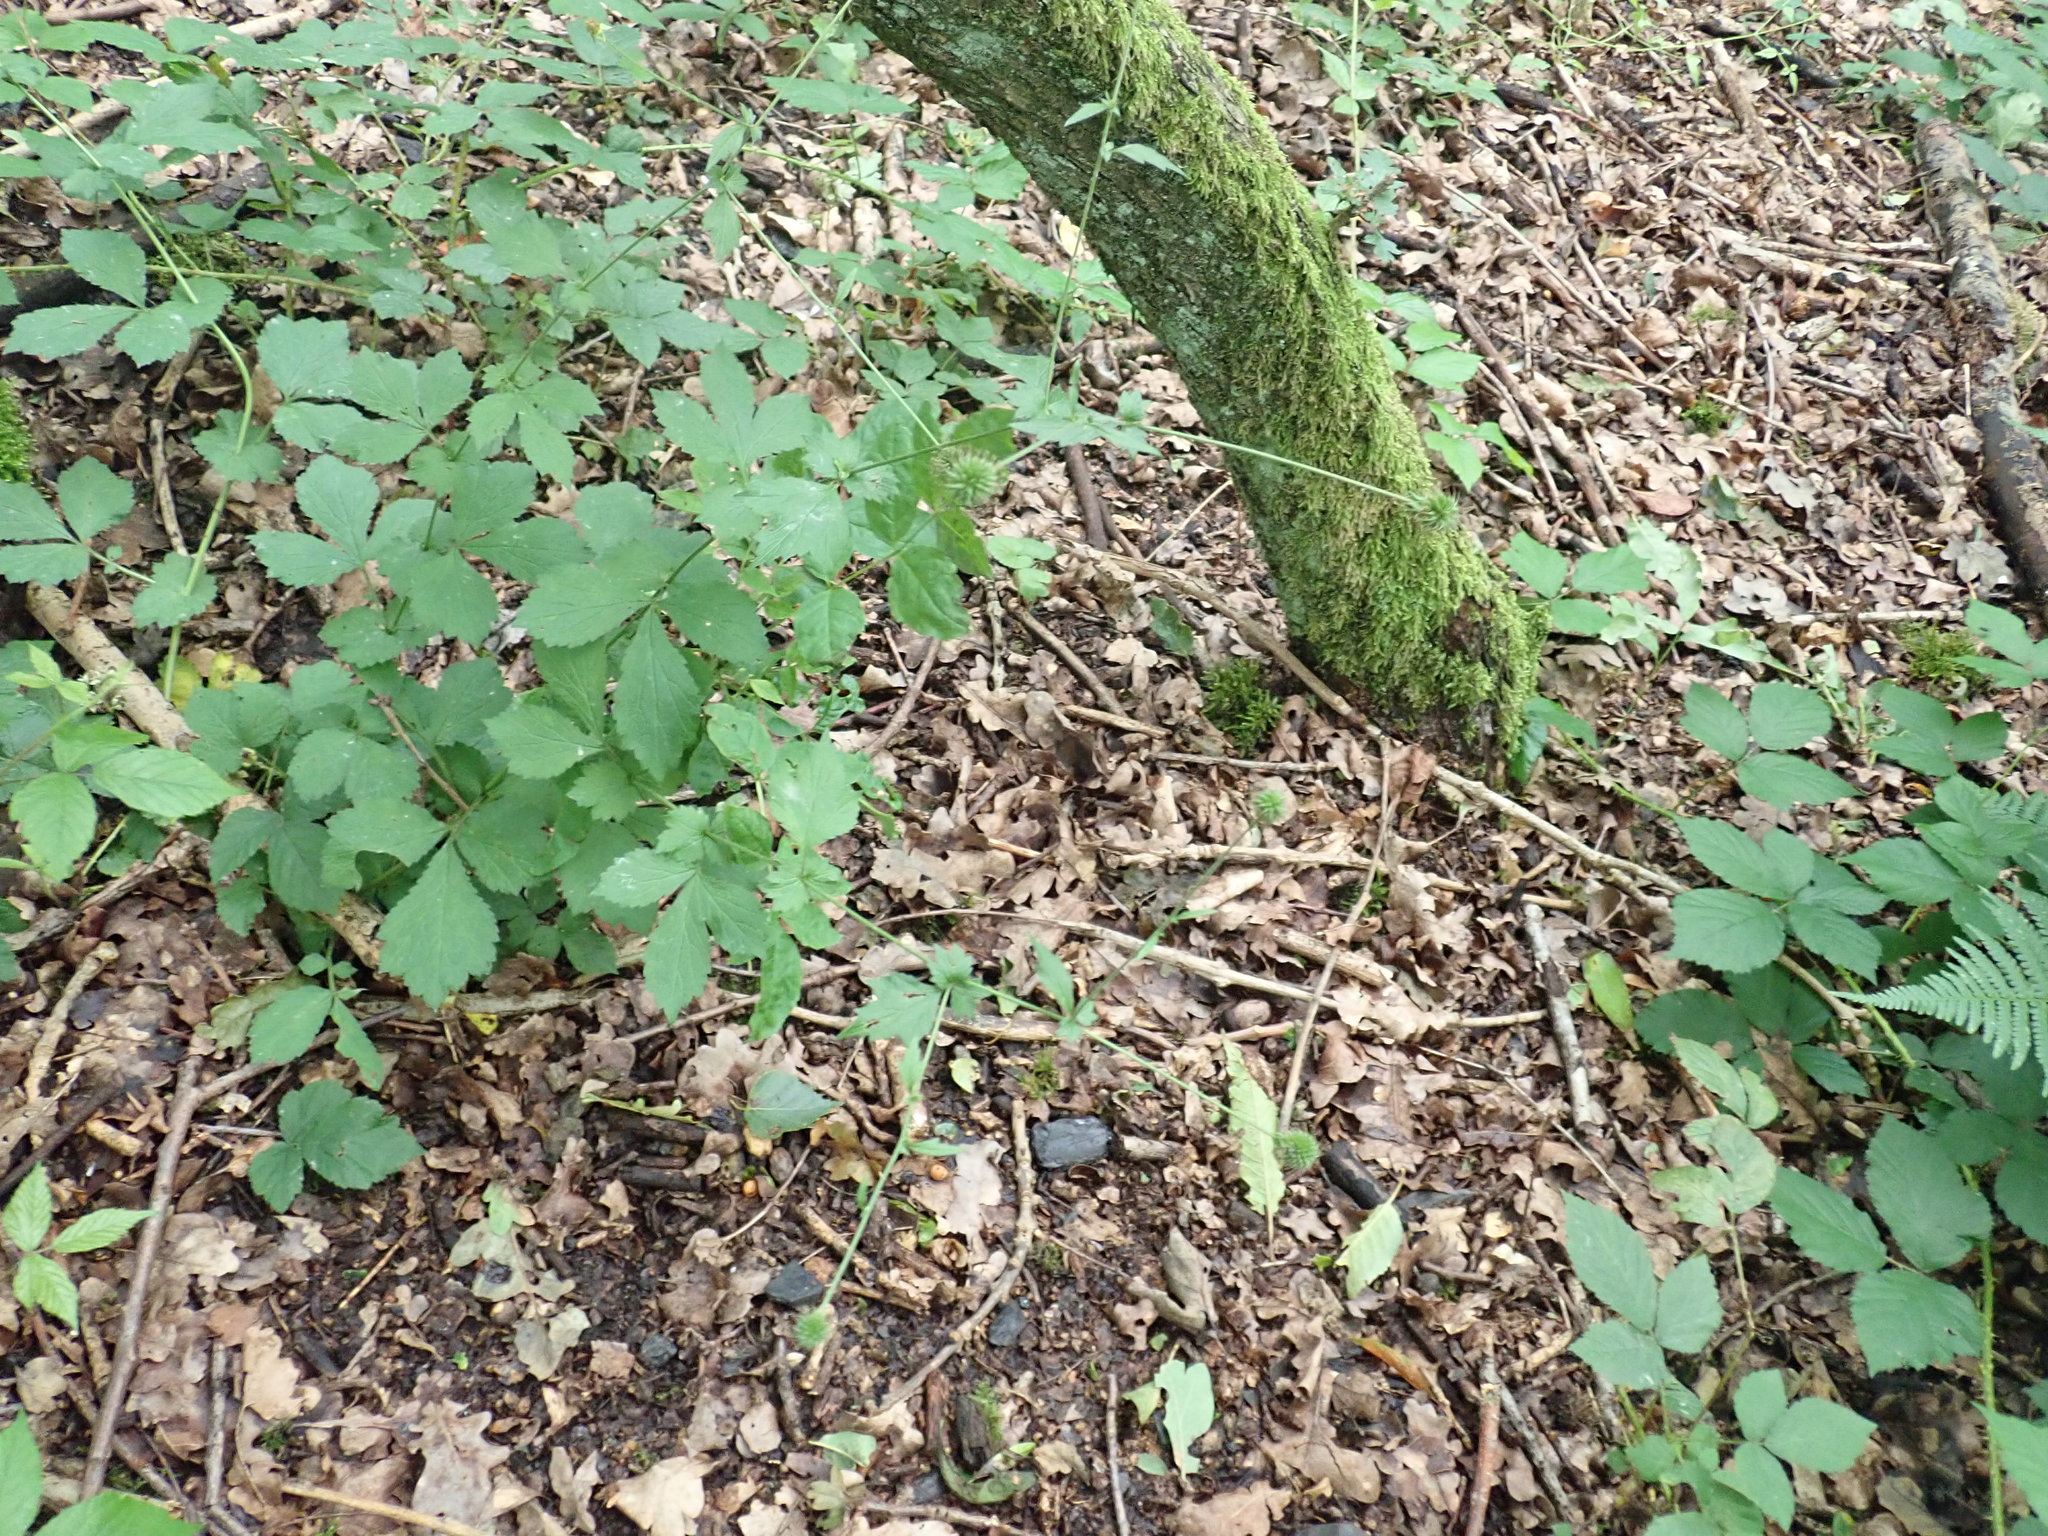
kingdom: Plantae
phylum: Tracheophyta
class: Magnoliopsida
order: Rosales
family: Rosaceae
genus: Geum
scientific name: Geum urbanum
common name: Wood avens
